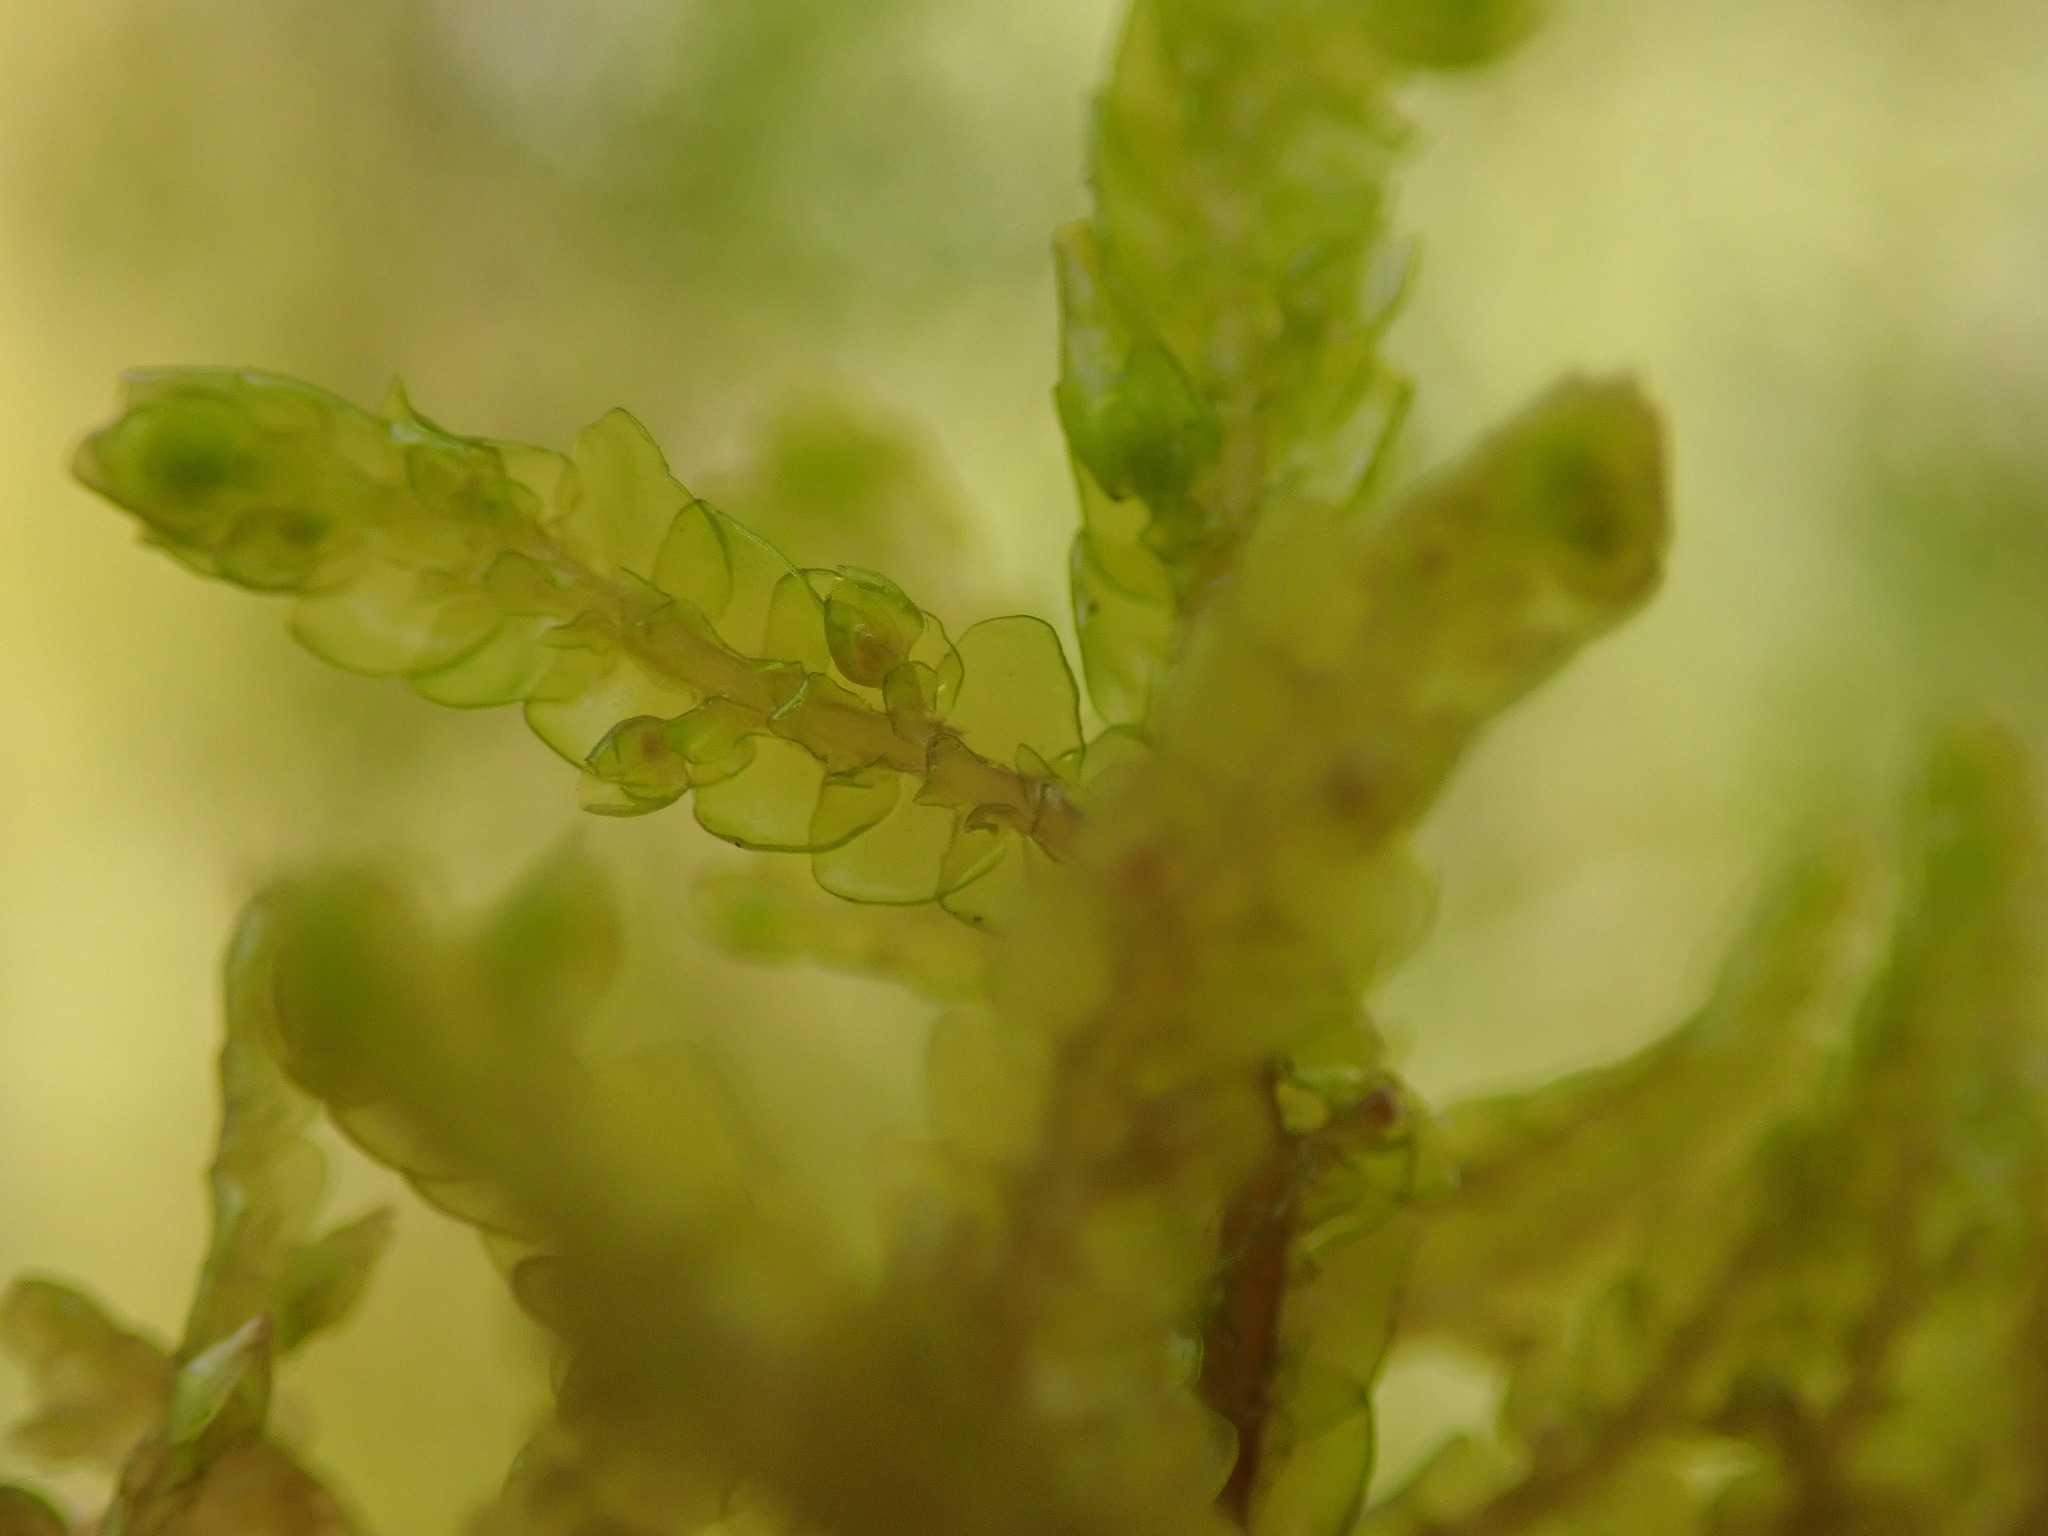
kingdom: Plantae
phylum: Marchantiophyta
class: Jungermanniopsida
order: Porellales
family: Porellaceae
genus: Porella
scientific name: Porella navicularis
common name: Tree ruffle liverwort
